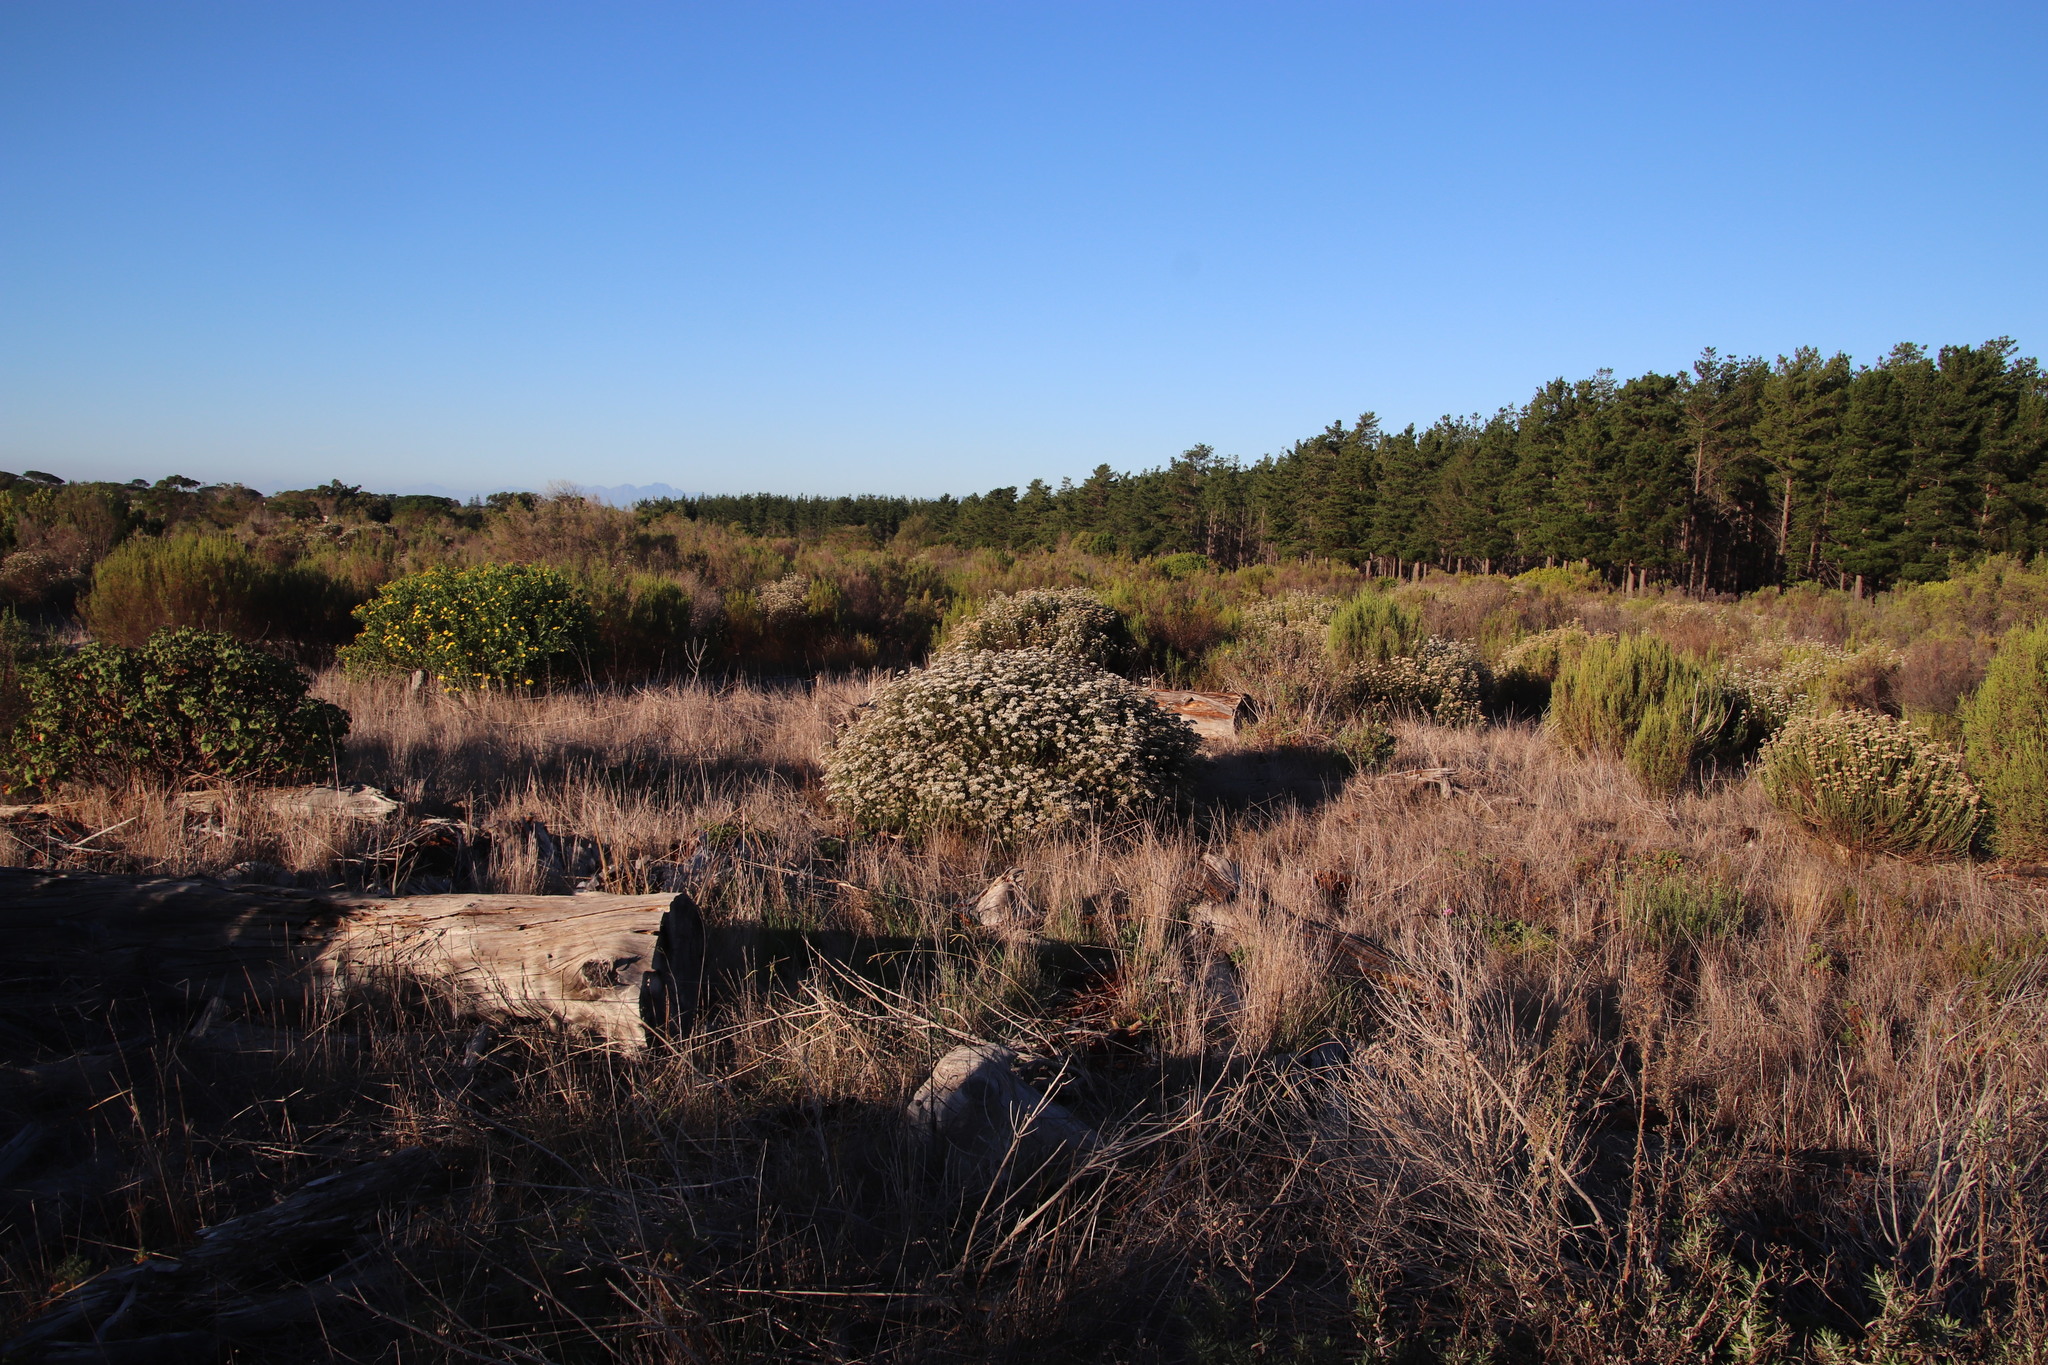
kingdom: Plantae
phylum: Tracheophyta
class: Magnoliopsida
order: Asterales
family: Asteraceae
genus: Metalasia
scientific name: Metalasia densa
